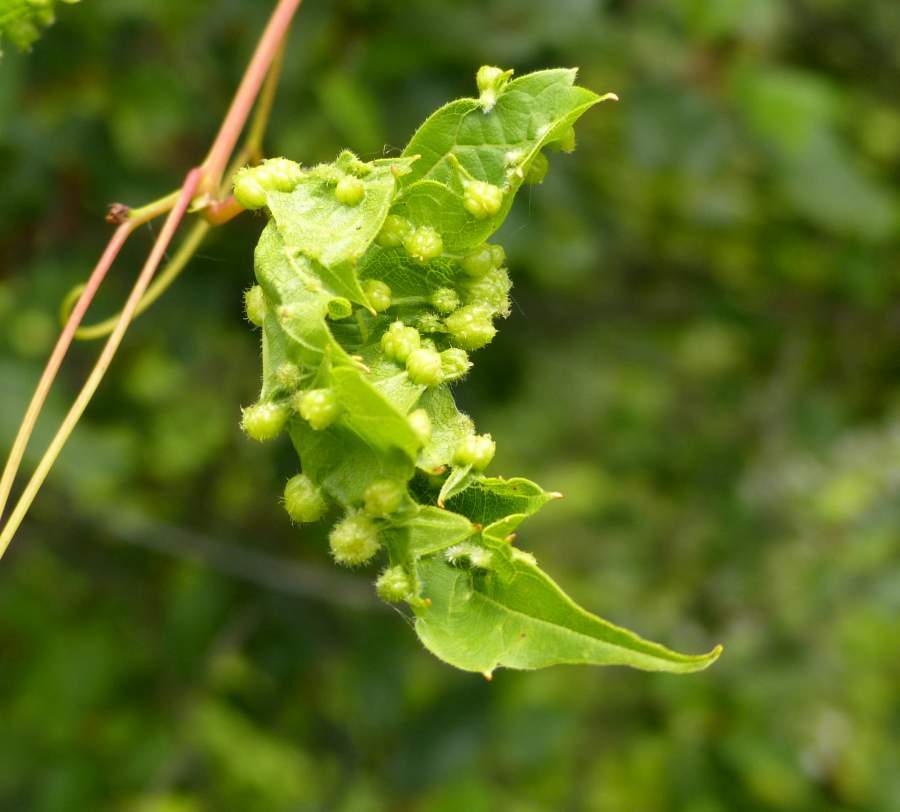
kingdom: Animalia
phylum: Arthropoda
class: Insecta
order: Hemiptera
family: Phylloxeridae
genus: Daktulosphaira
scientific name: Daktulosphaira vitifoliae
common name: Grape phylloxera
